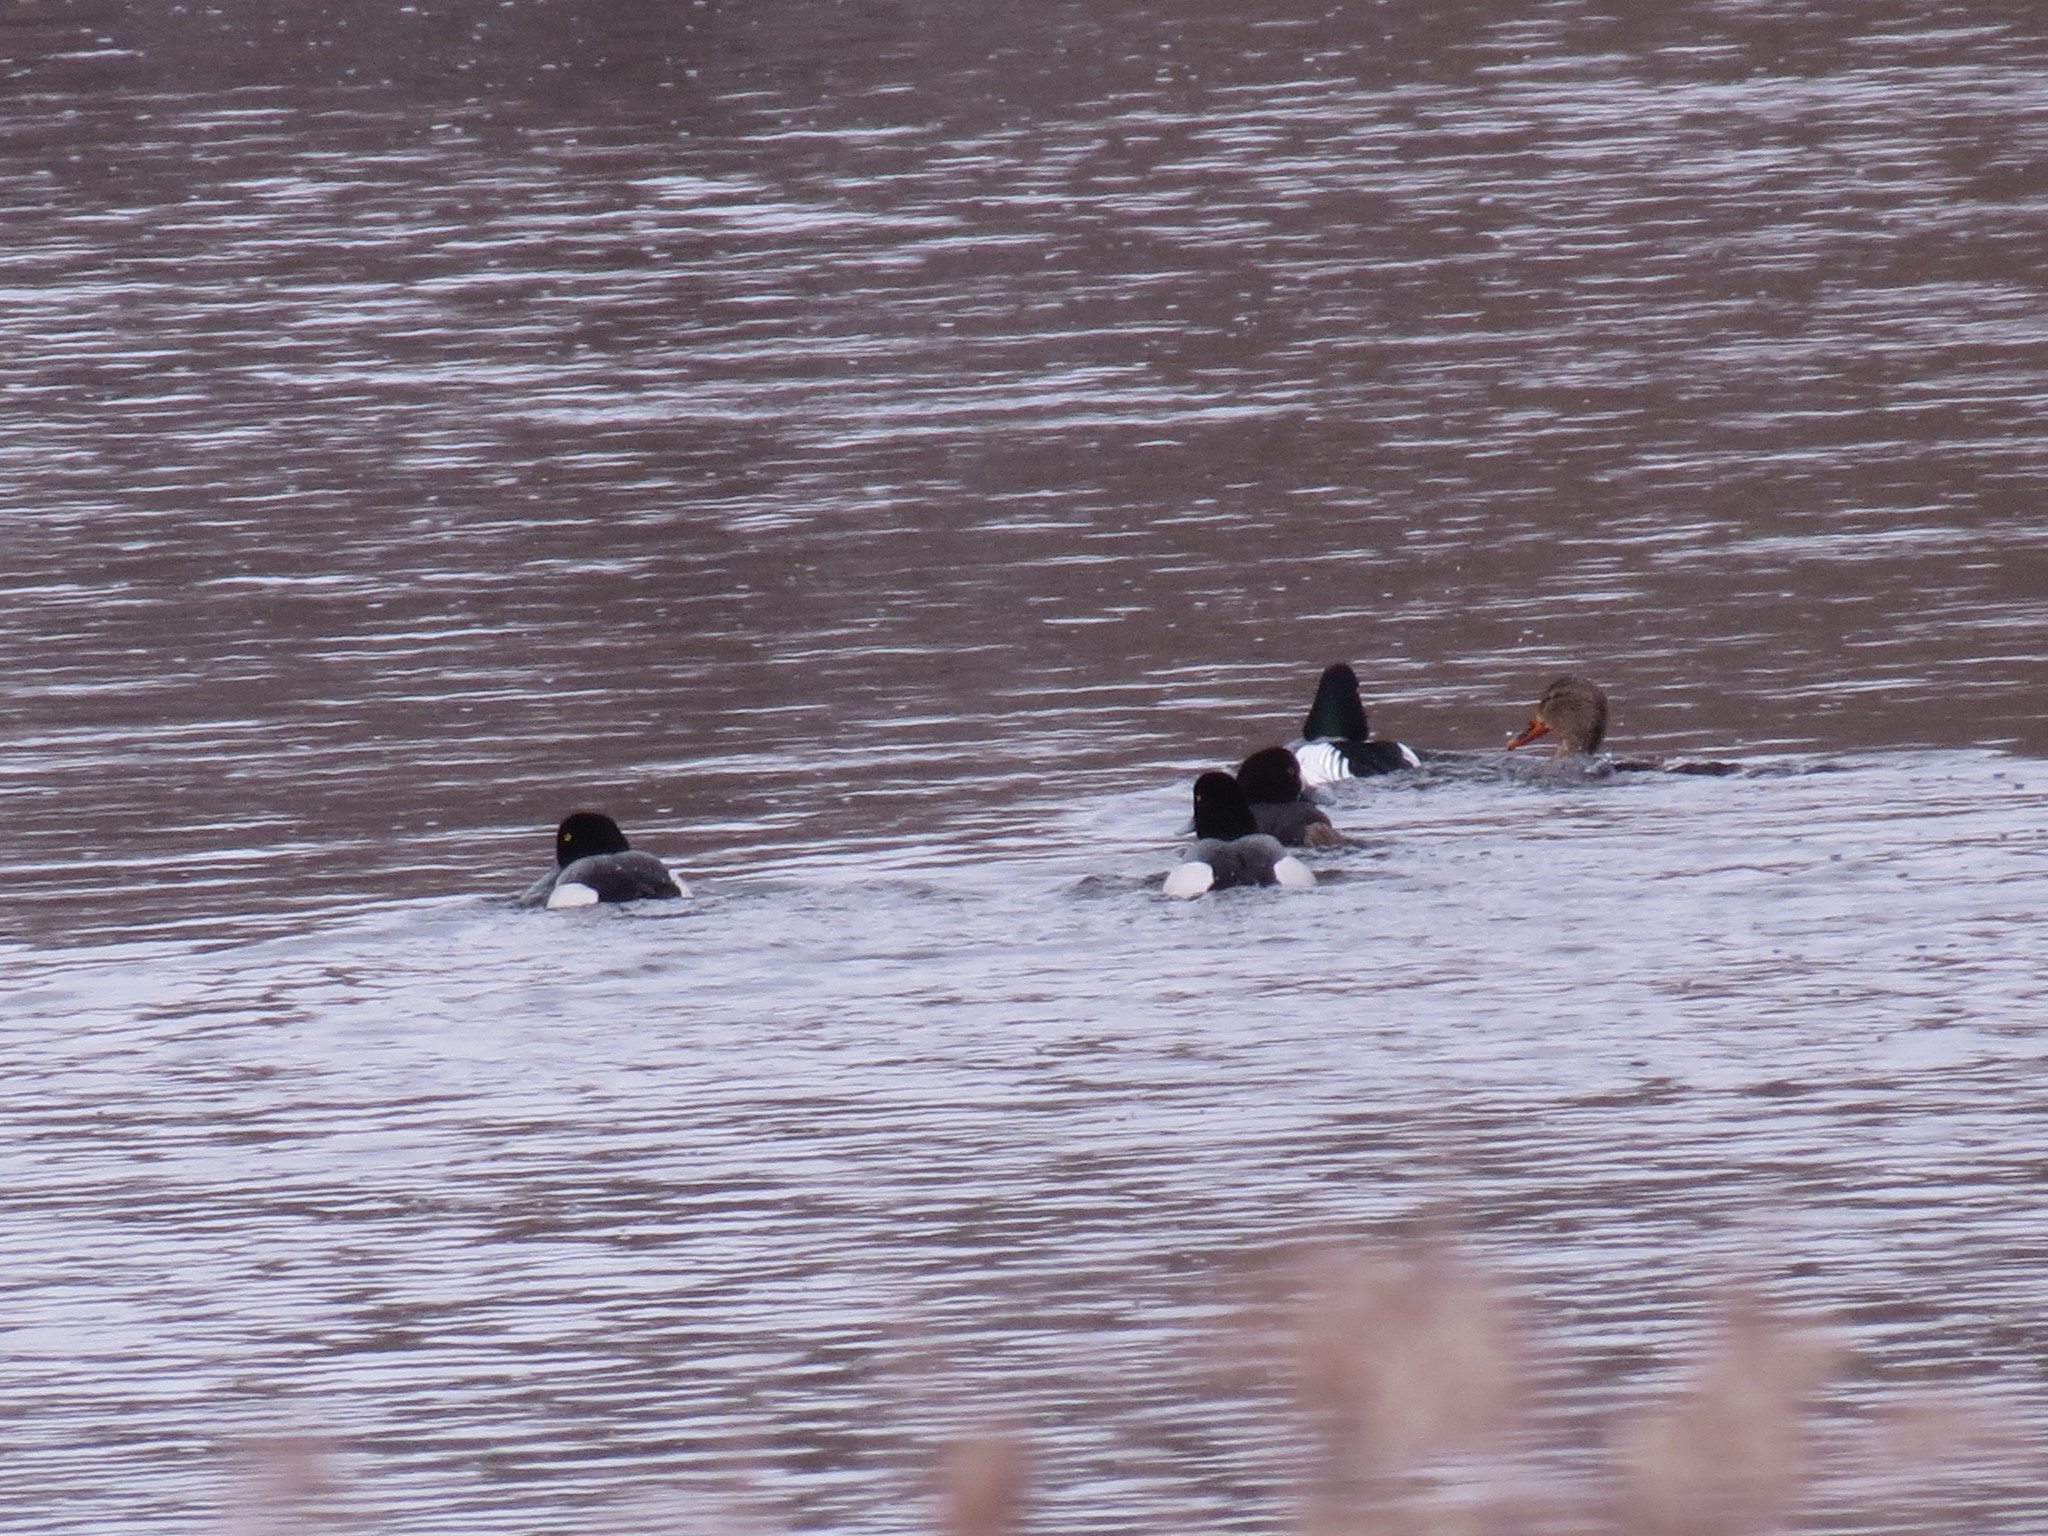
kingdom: Animalia
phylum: Chordata
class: Aves
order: Anseriformes
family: Anatidae
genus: Anas
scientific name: Anas platyrhynchos
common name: Mallard
